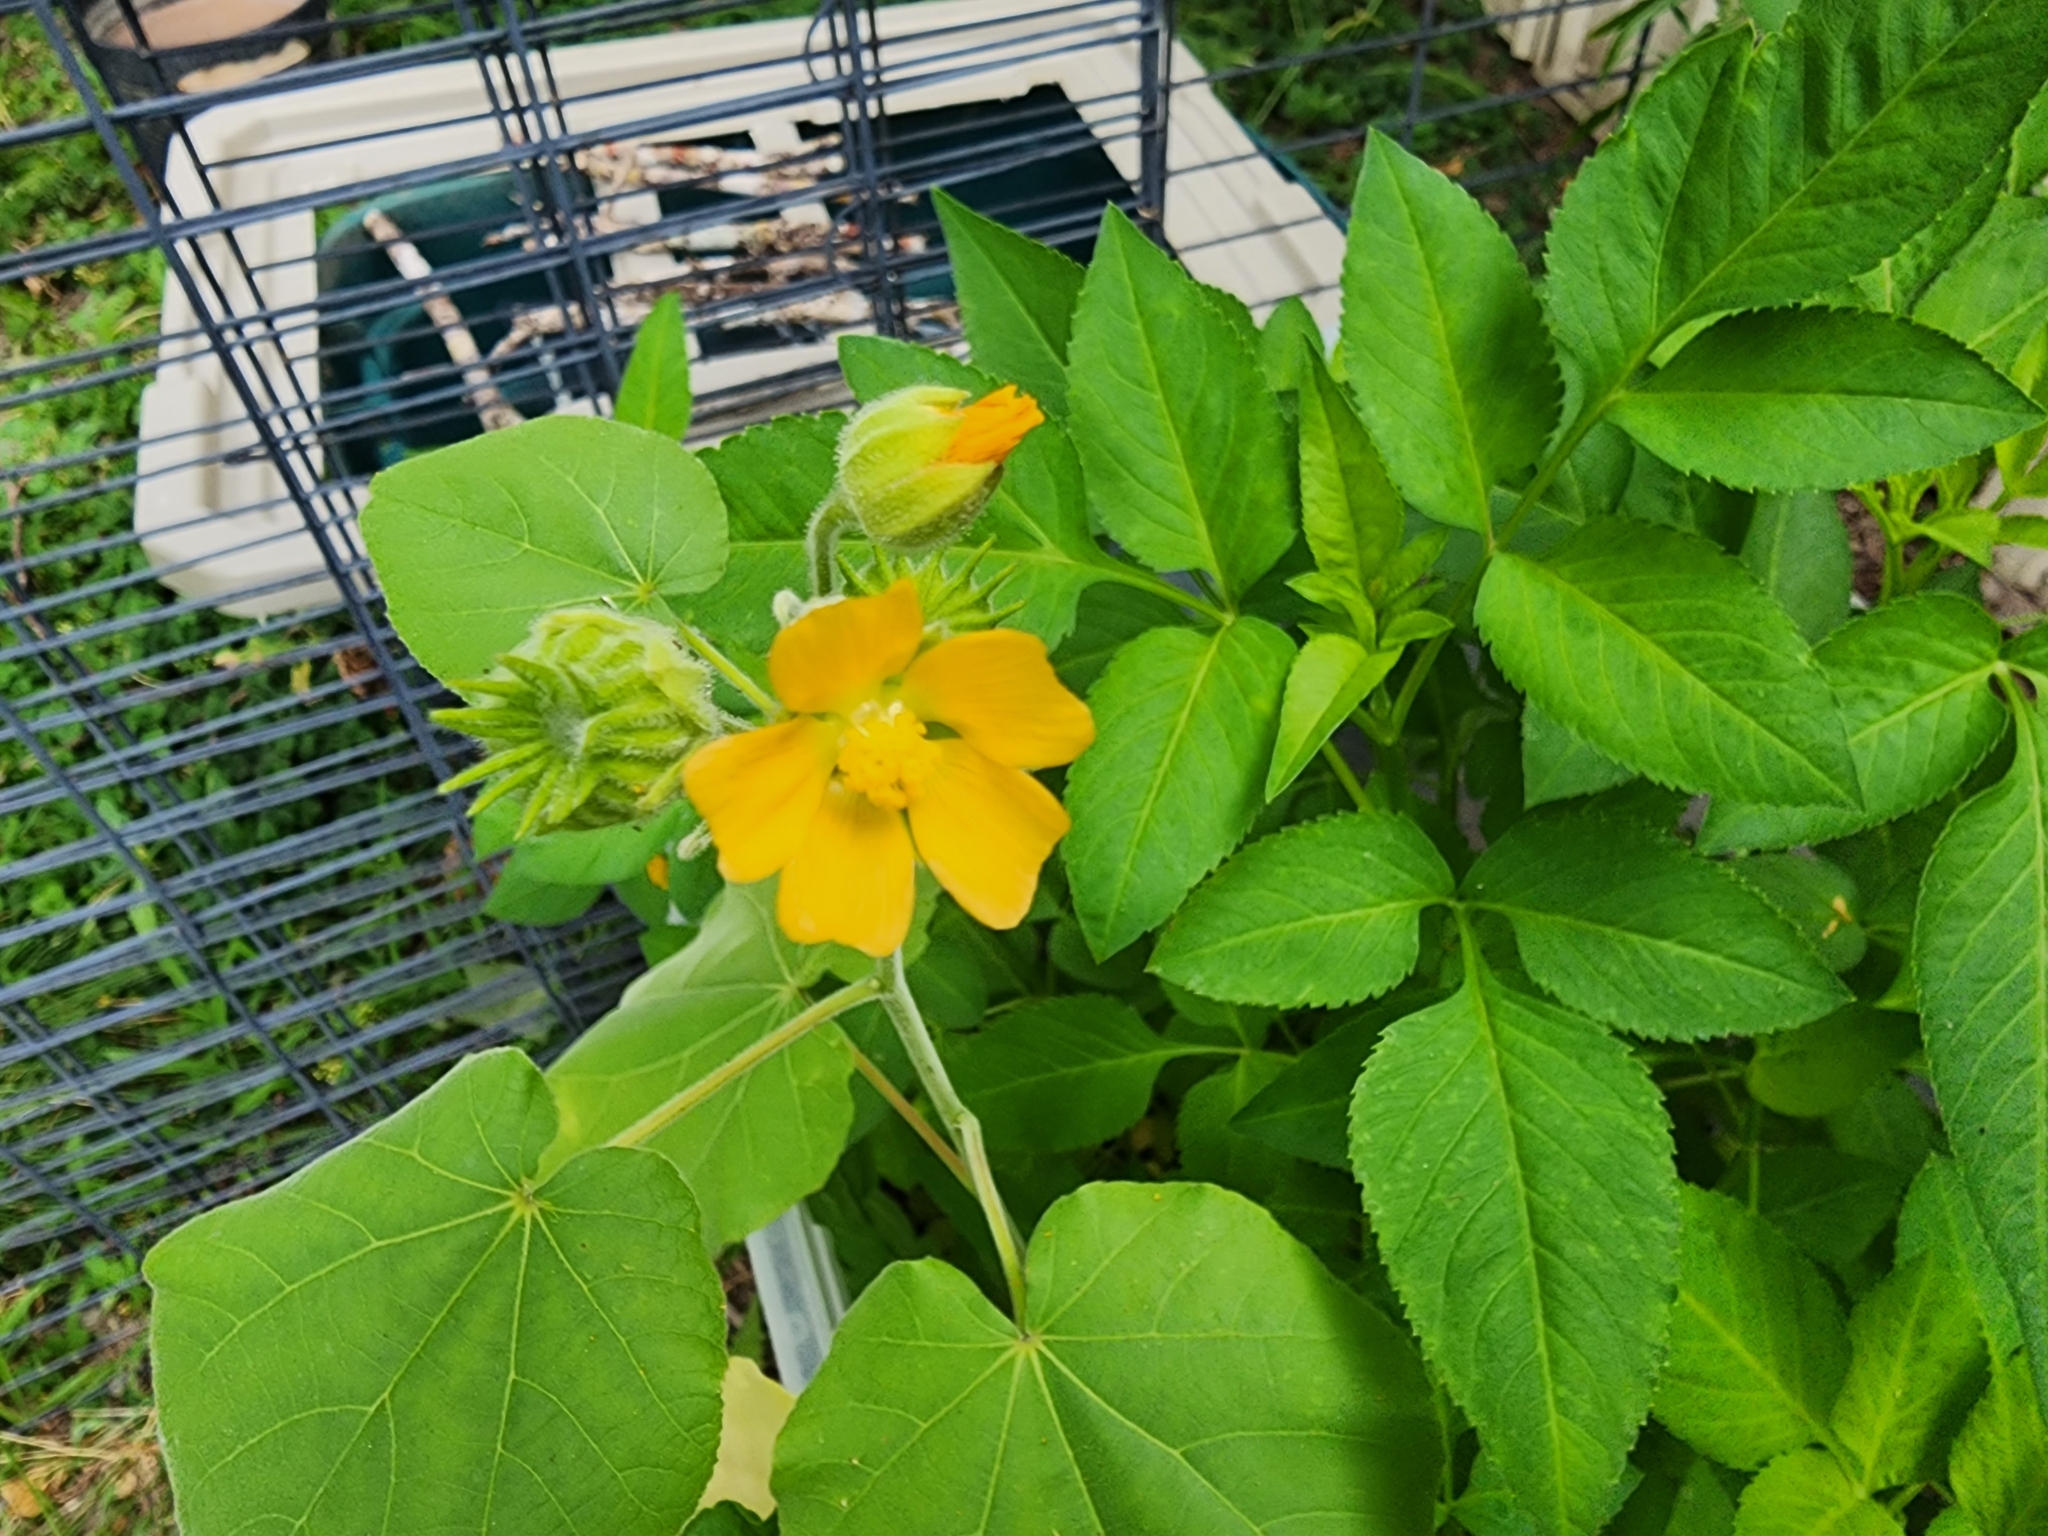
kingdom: Plantae
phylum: Tracheophyta
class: Magnoliopsida
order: Malvales
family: Malvaceae
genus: Abutilon
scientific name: Abutilon theophrasti
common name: Velvetleaf
